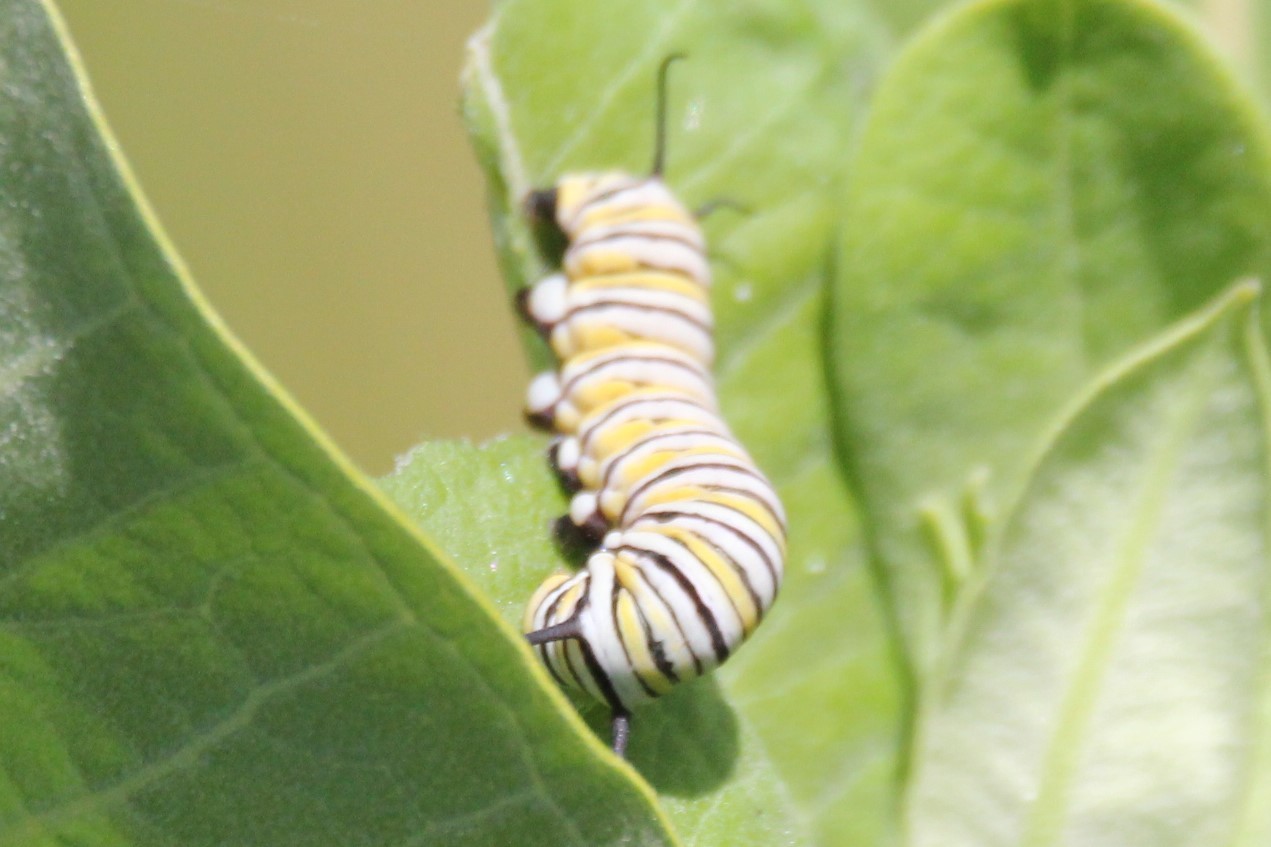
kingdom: Animalia
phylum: Arthropoda
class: Insecta
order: Lepidoptera
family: Nymphalidae
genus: Danaus
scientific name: Danaus plexippus
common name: Monarch
